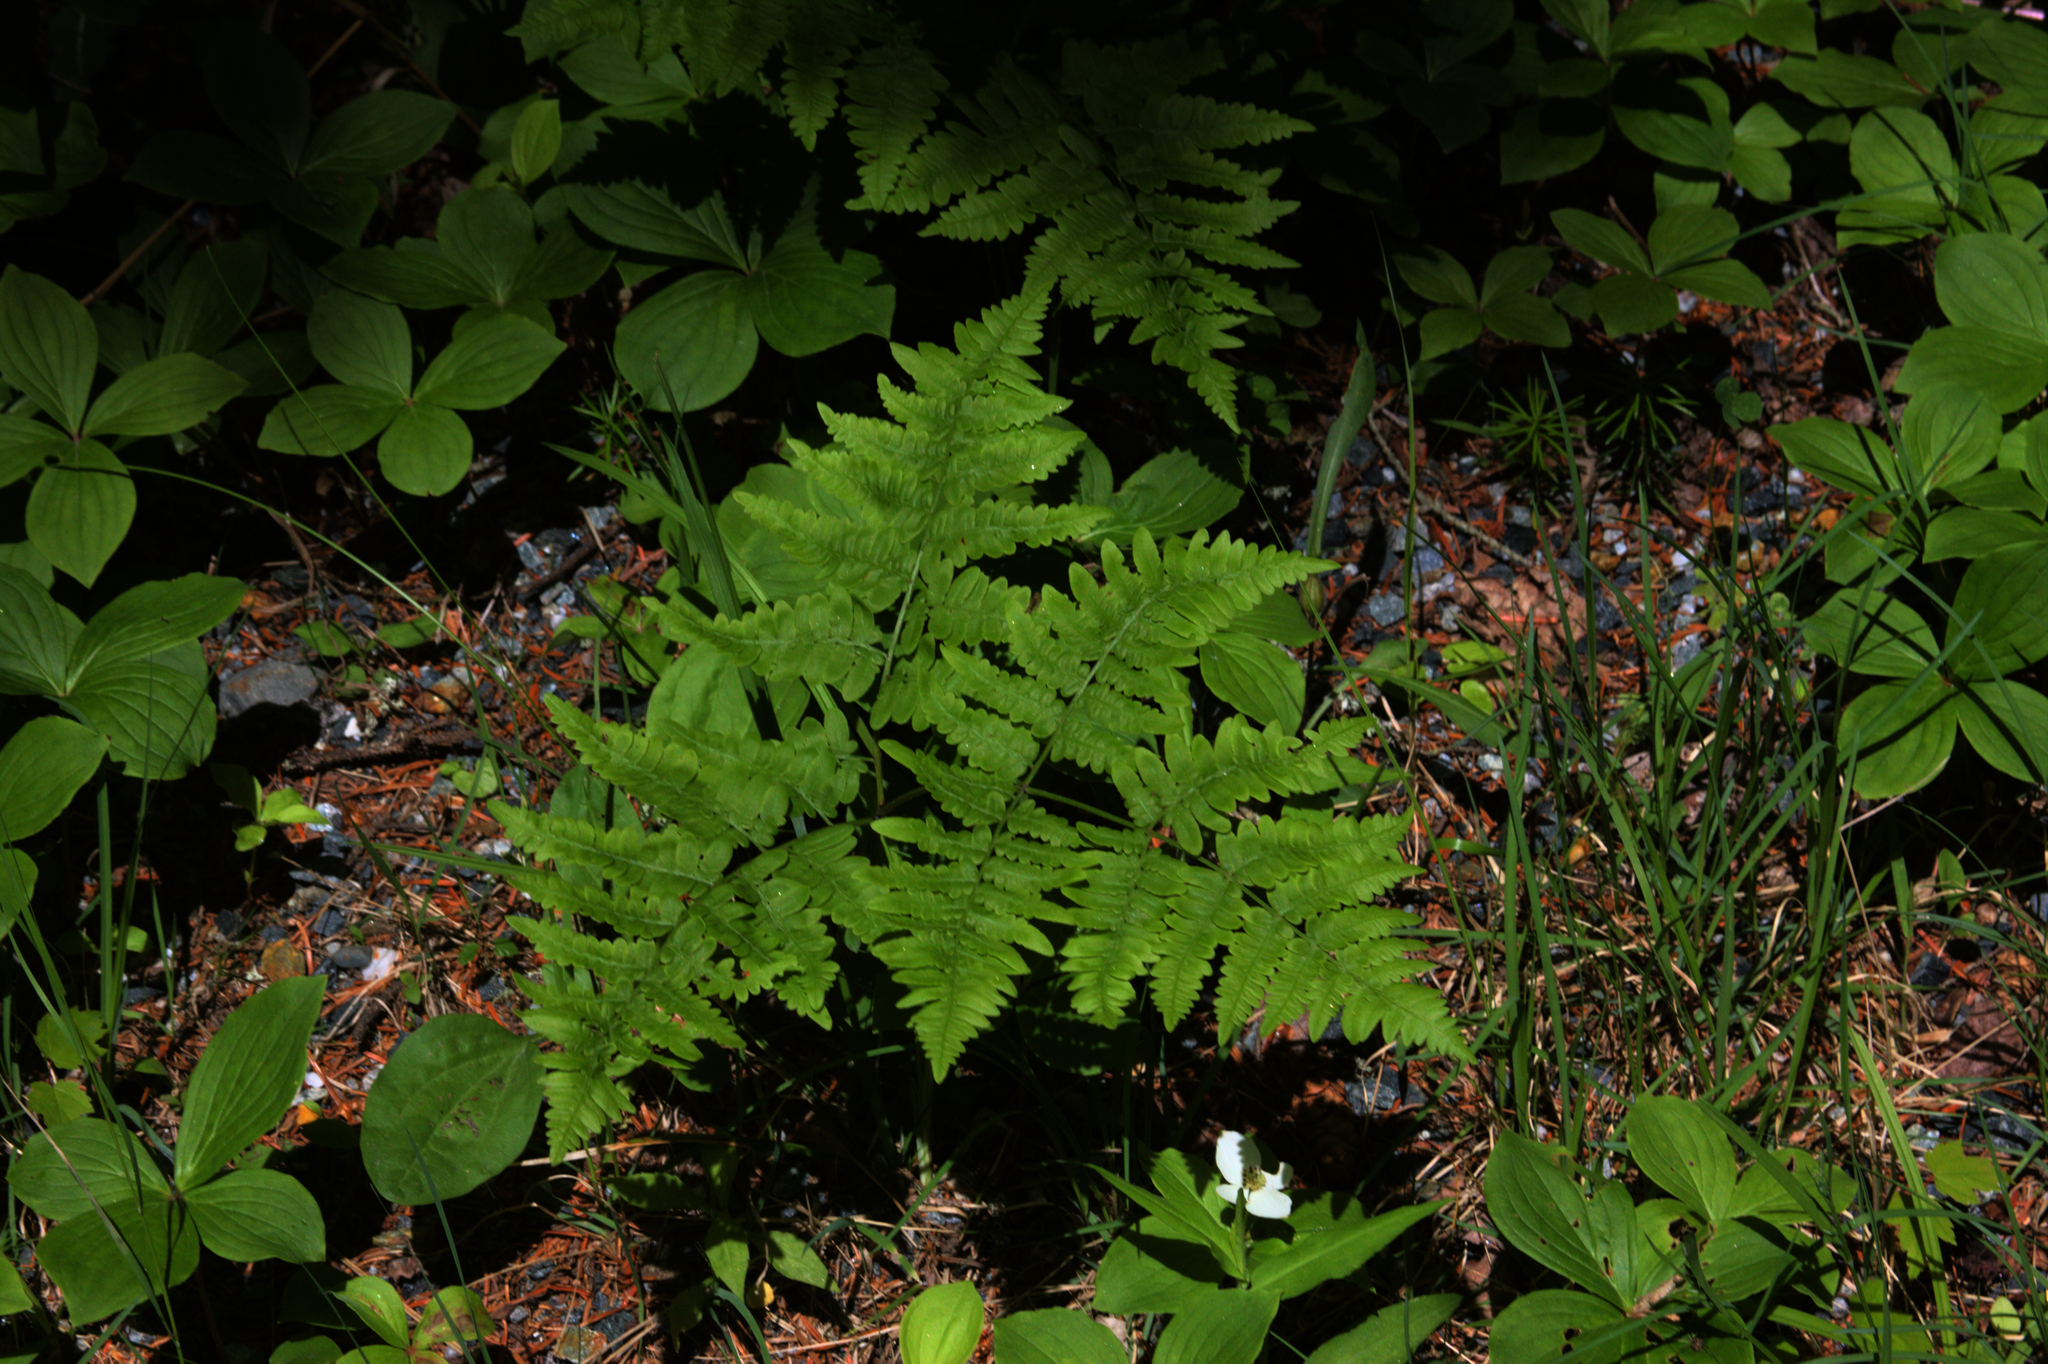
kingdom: Plantae
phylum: Tracheophyta
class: Magnoliopsida
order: Cornales
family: Cornaceae
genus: Cornus
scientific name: Cornus canadensis
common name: Creeping dogwood
